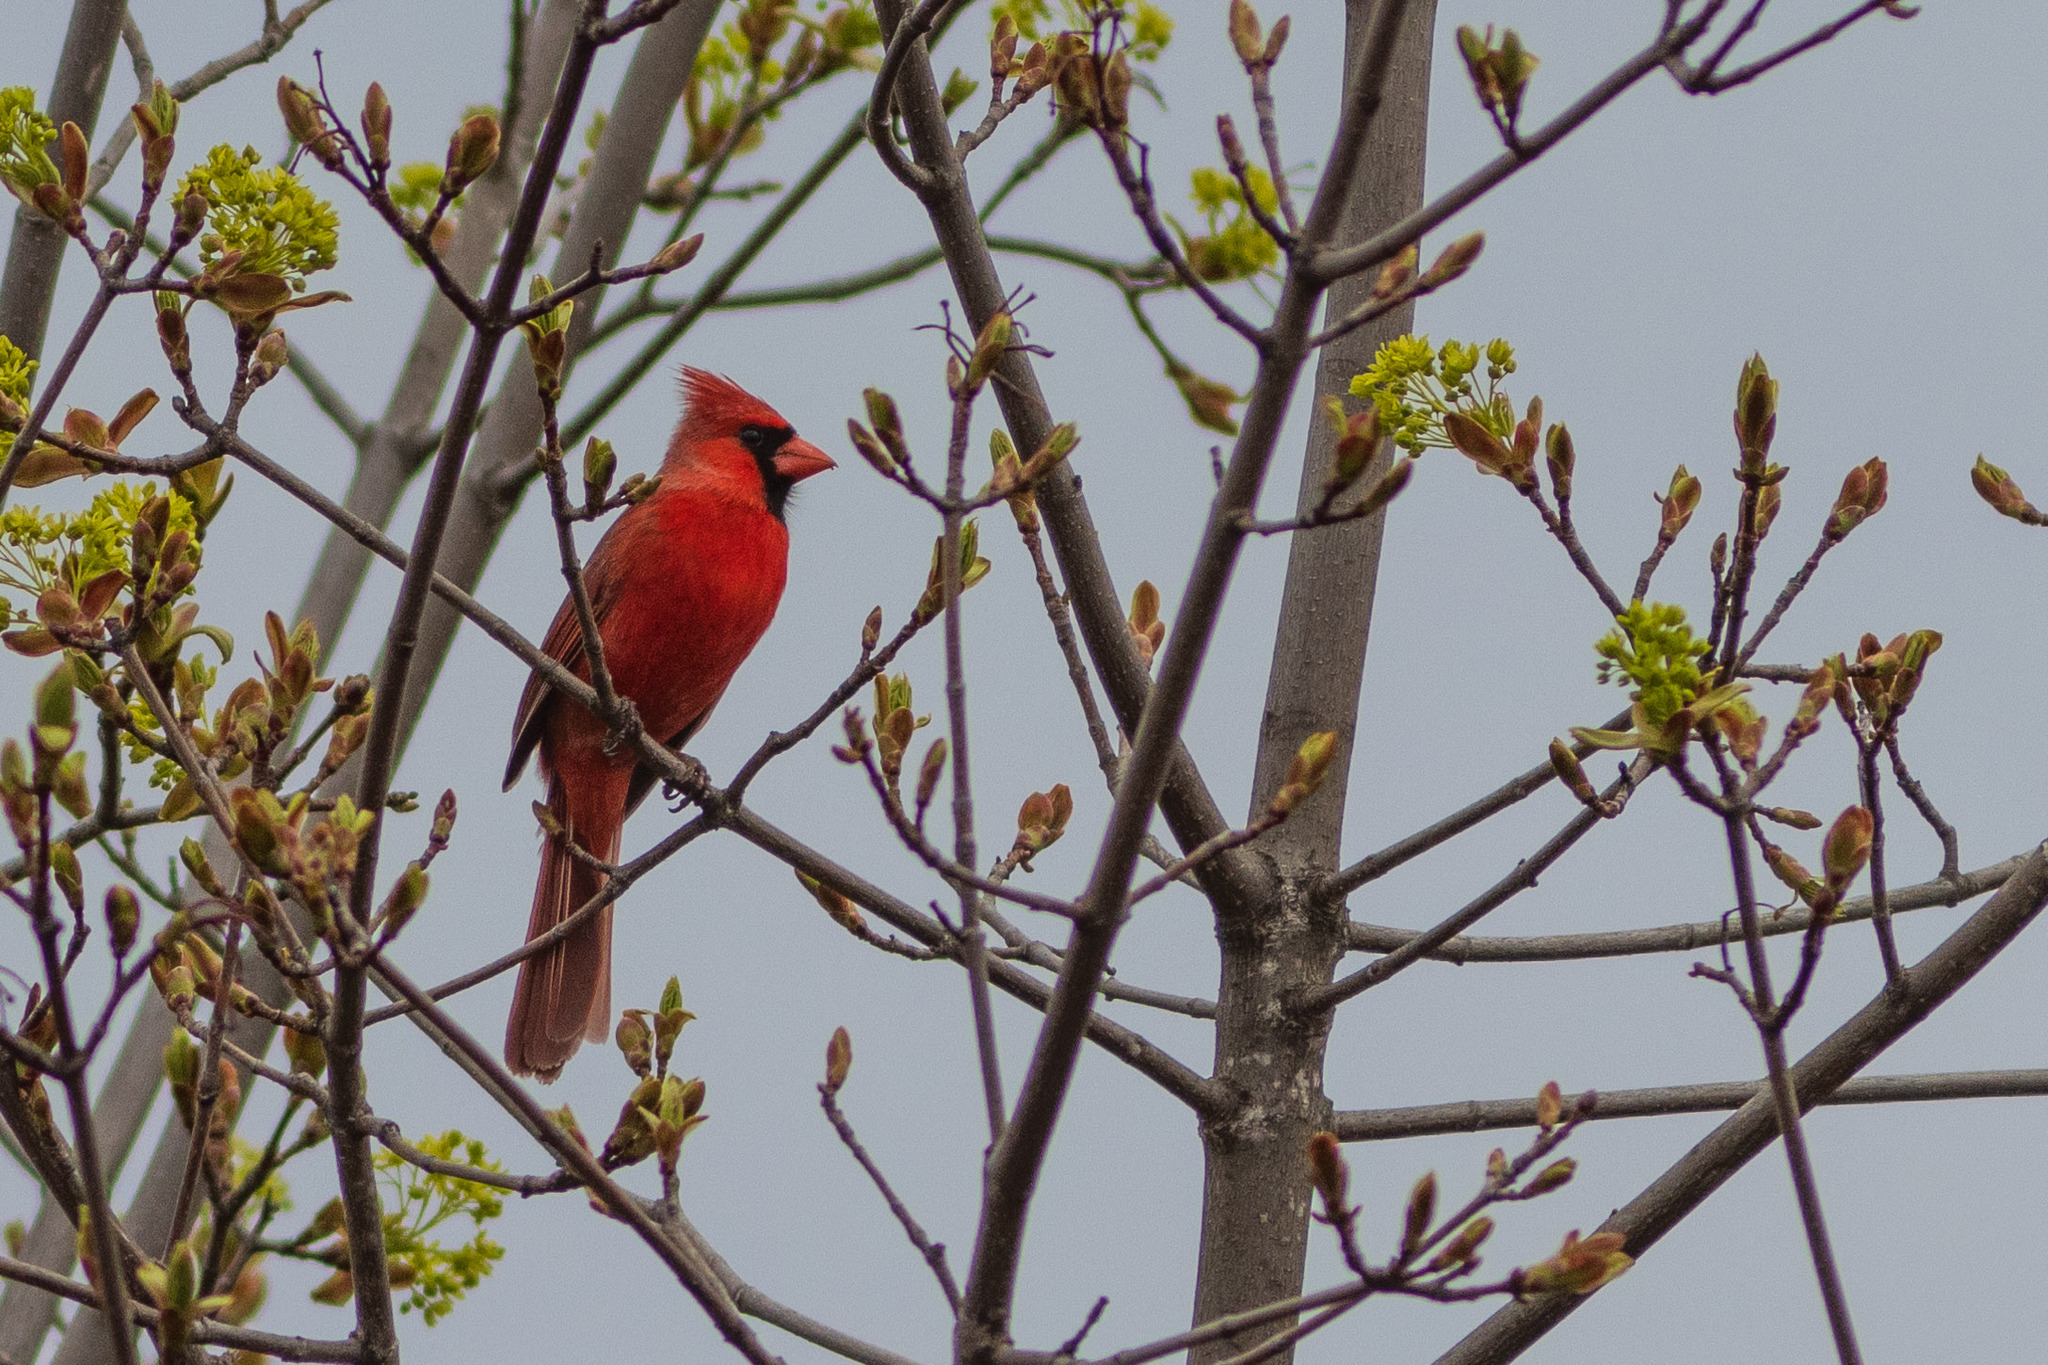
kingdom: Animalia
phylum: Chordata
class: Aves
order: Passeriformes
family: Cardinalidae
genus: Cardinalis
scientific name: Cardinalis cardinalis
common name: Northern cardinal
